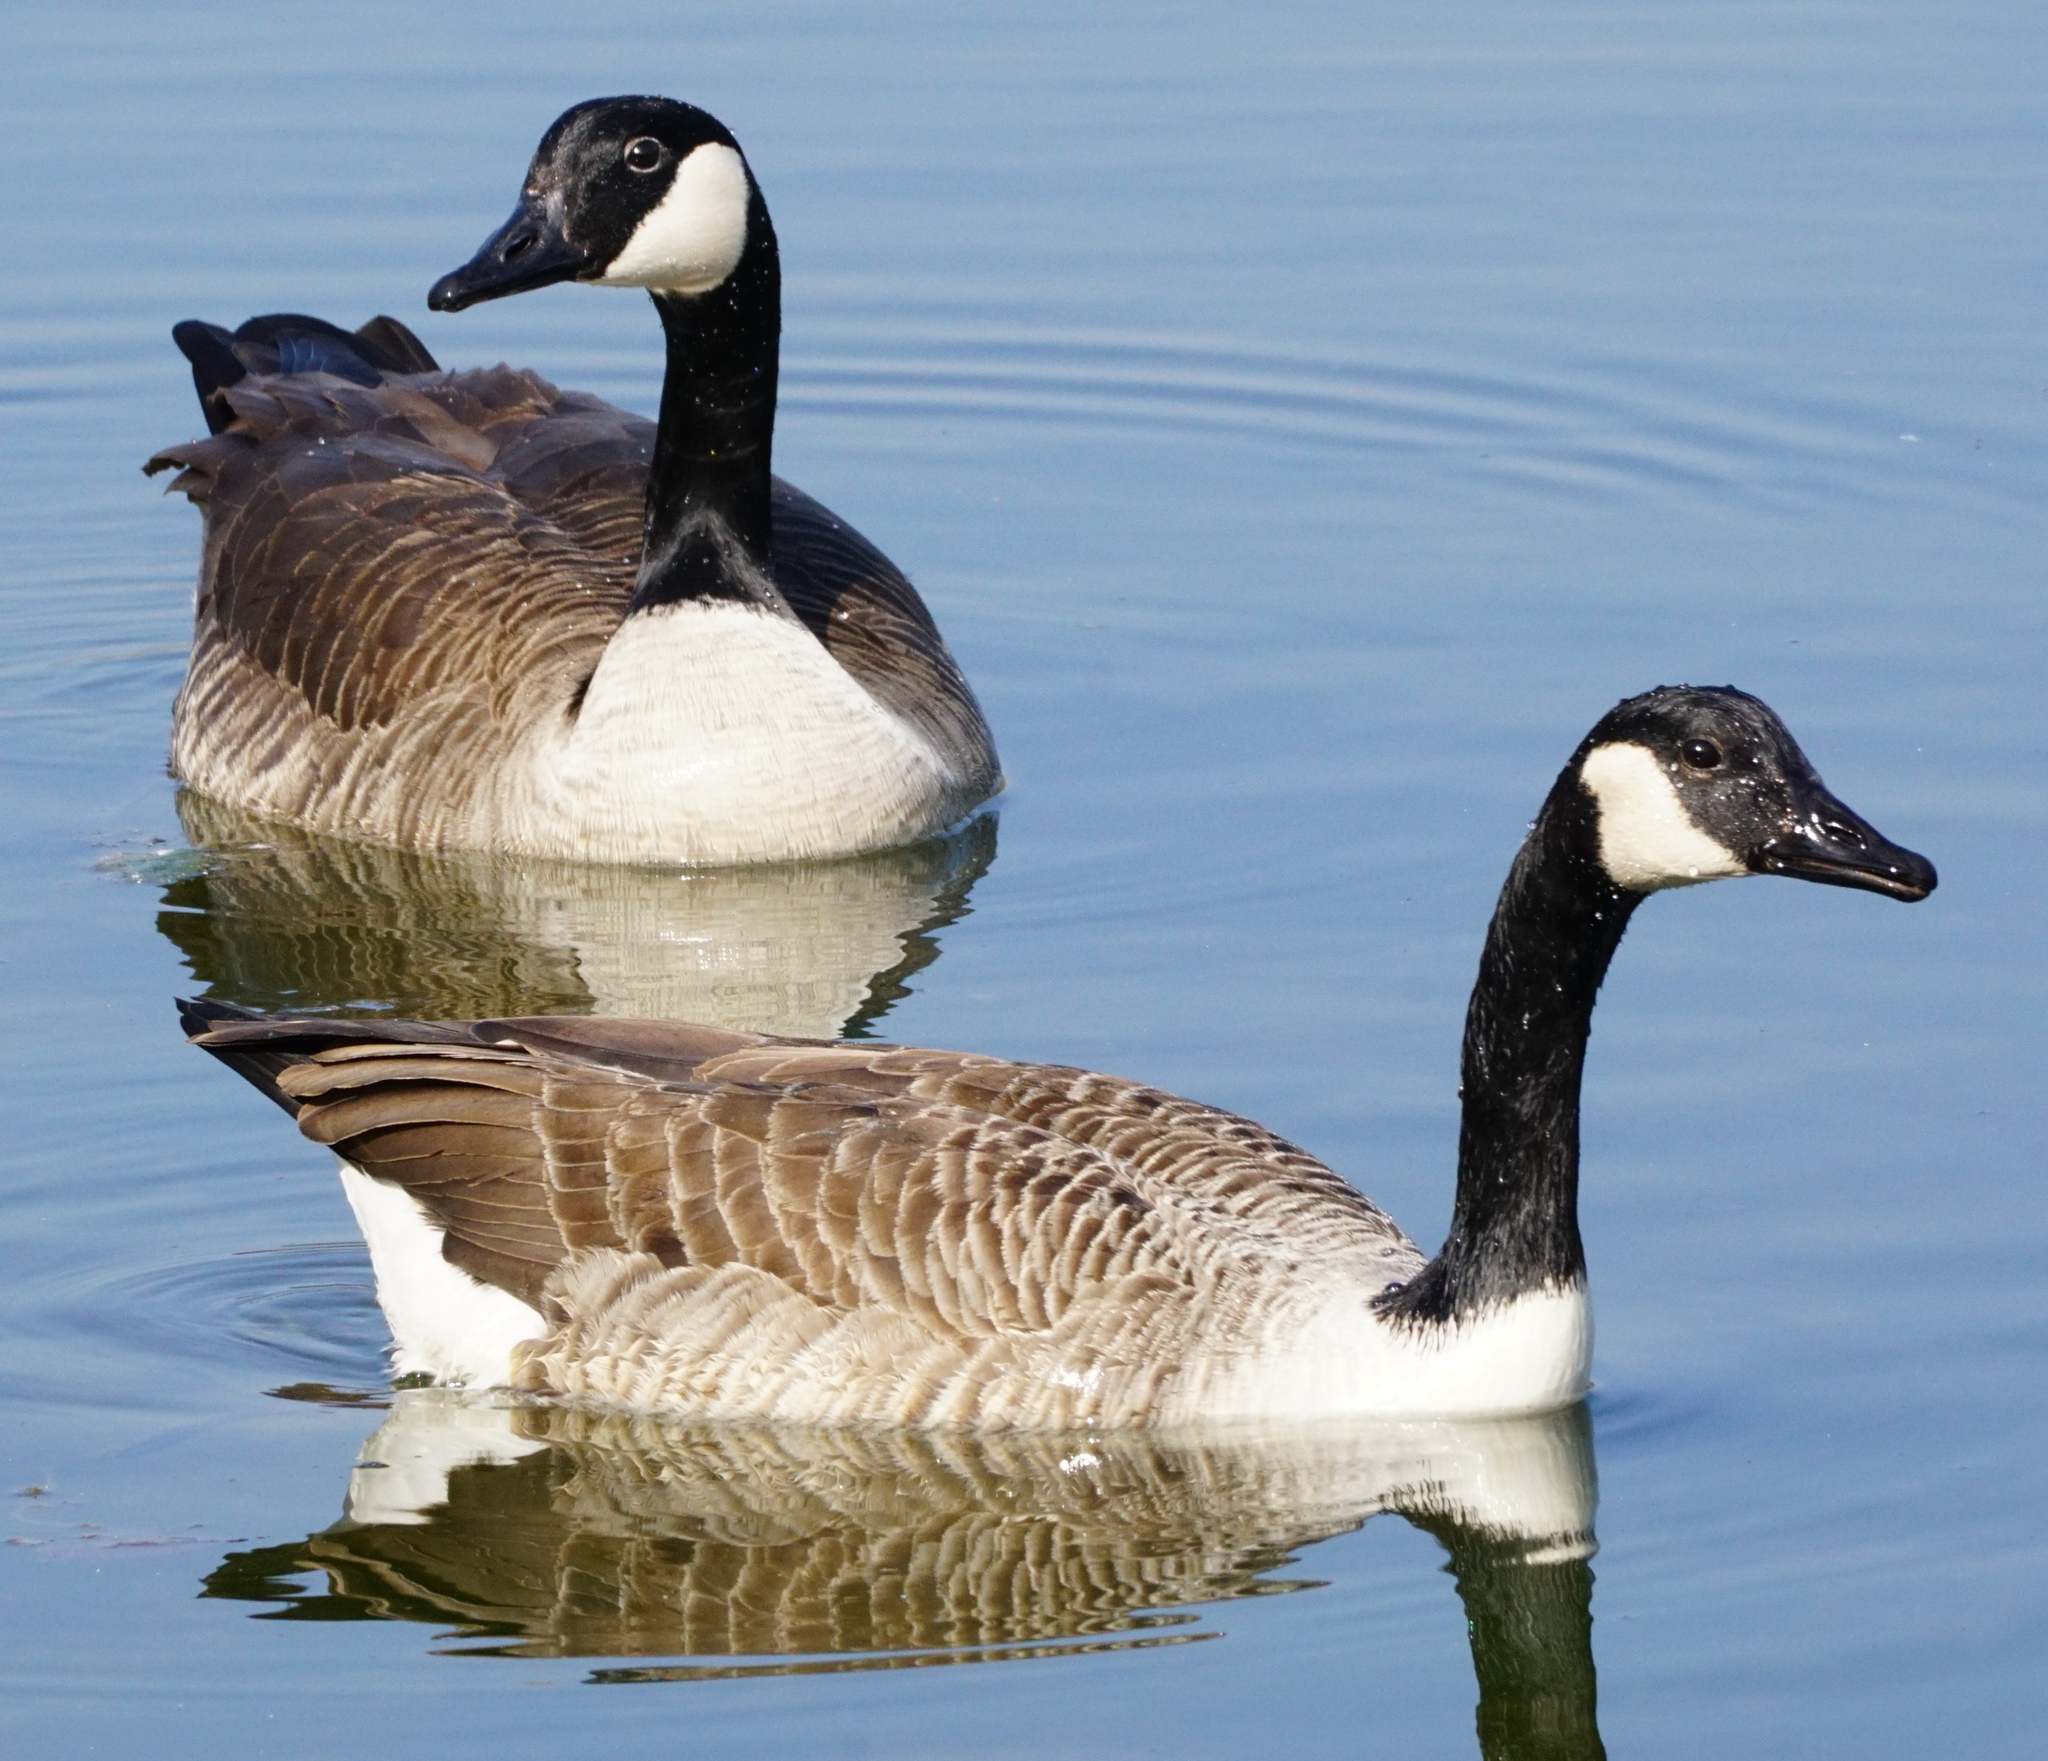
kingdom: Animalia
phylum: Chordata
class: Aves
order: Anseriformes
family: Anatidae
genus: Branta
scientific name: Branta canadensis
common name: Canada goose
